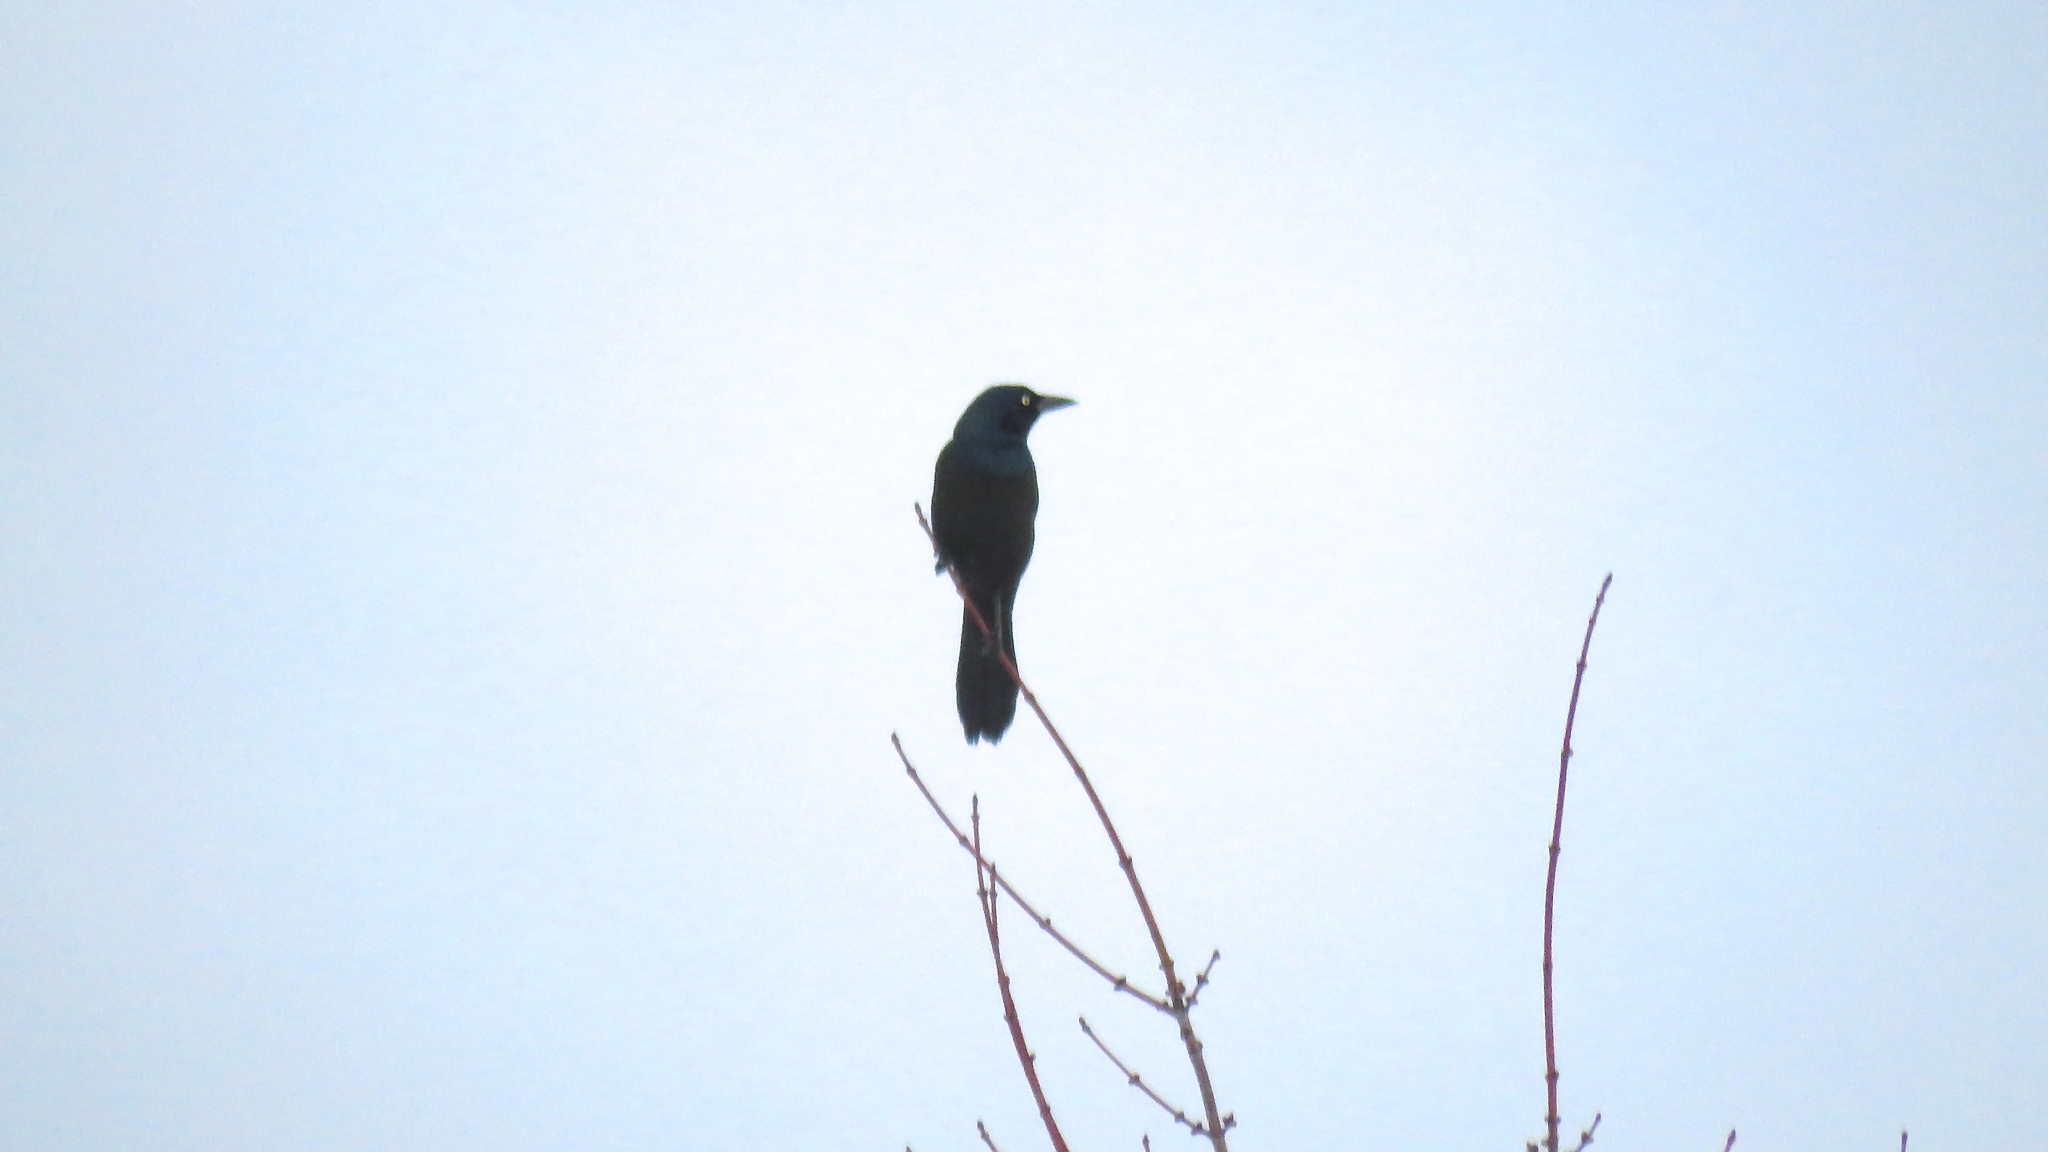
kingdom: Animalia
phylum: Chordata
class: Aves
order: Passeriformes
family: Icteridae
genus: Quiscalus
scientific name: Quiscalus quiscula
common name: Common grackle
